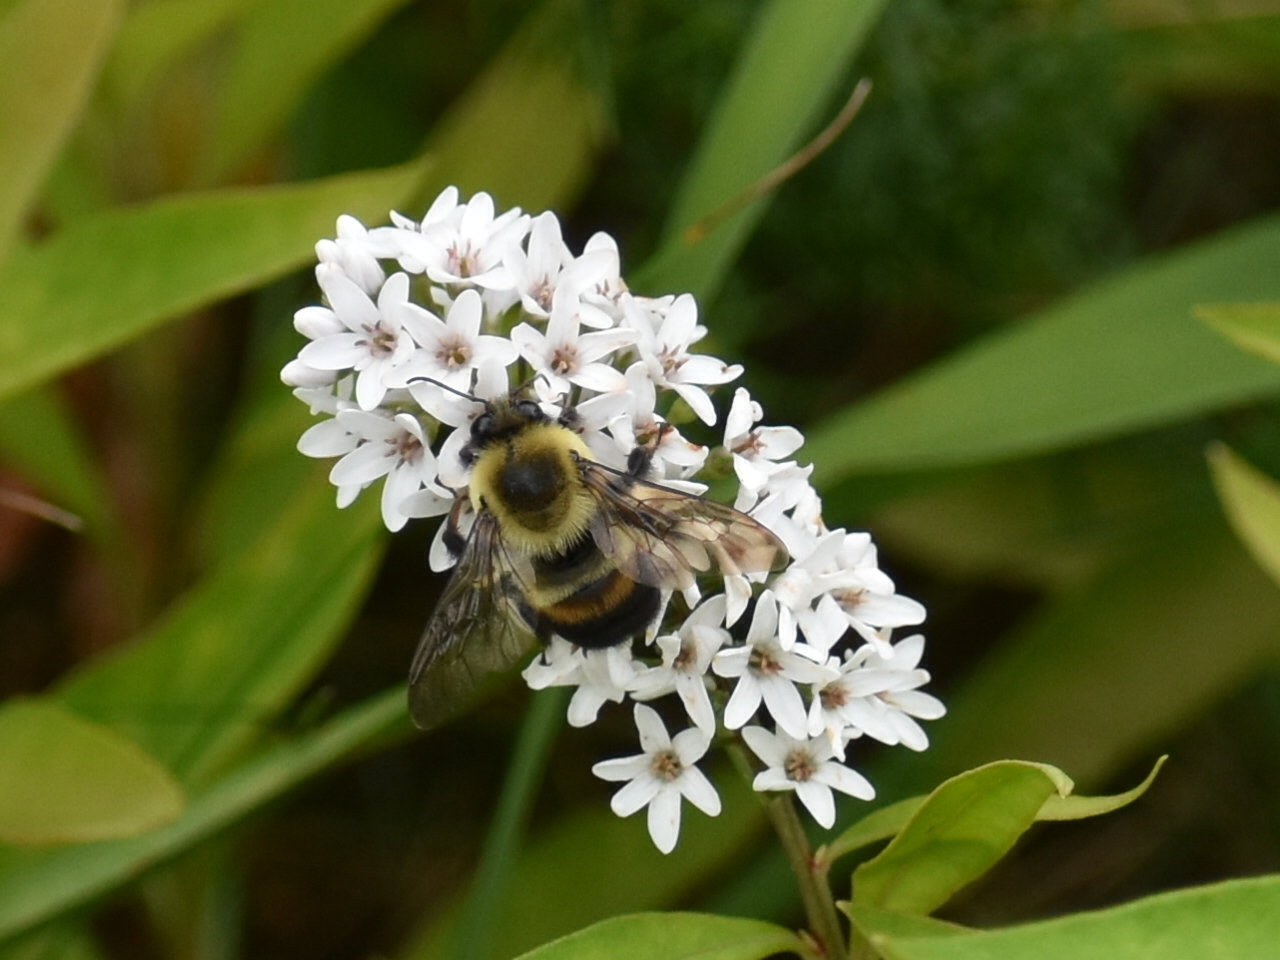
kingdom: Animalia
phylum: Arthropoda
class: Insecta
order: Hymenoptera
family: Apidae
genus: Bombus
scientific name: Bombus griseocollis
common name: Brown-belted bumble bee
